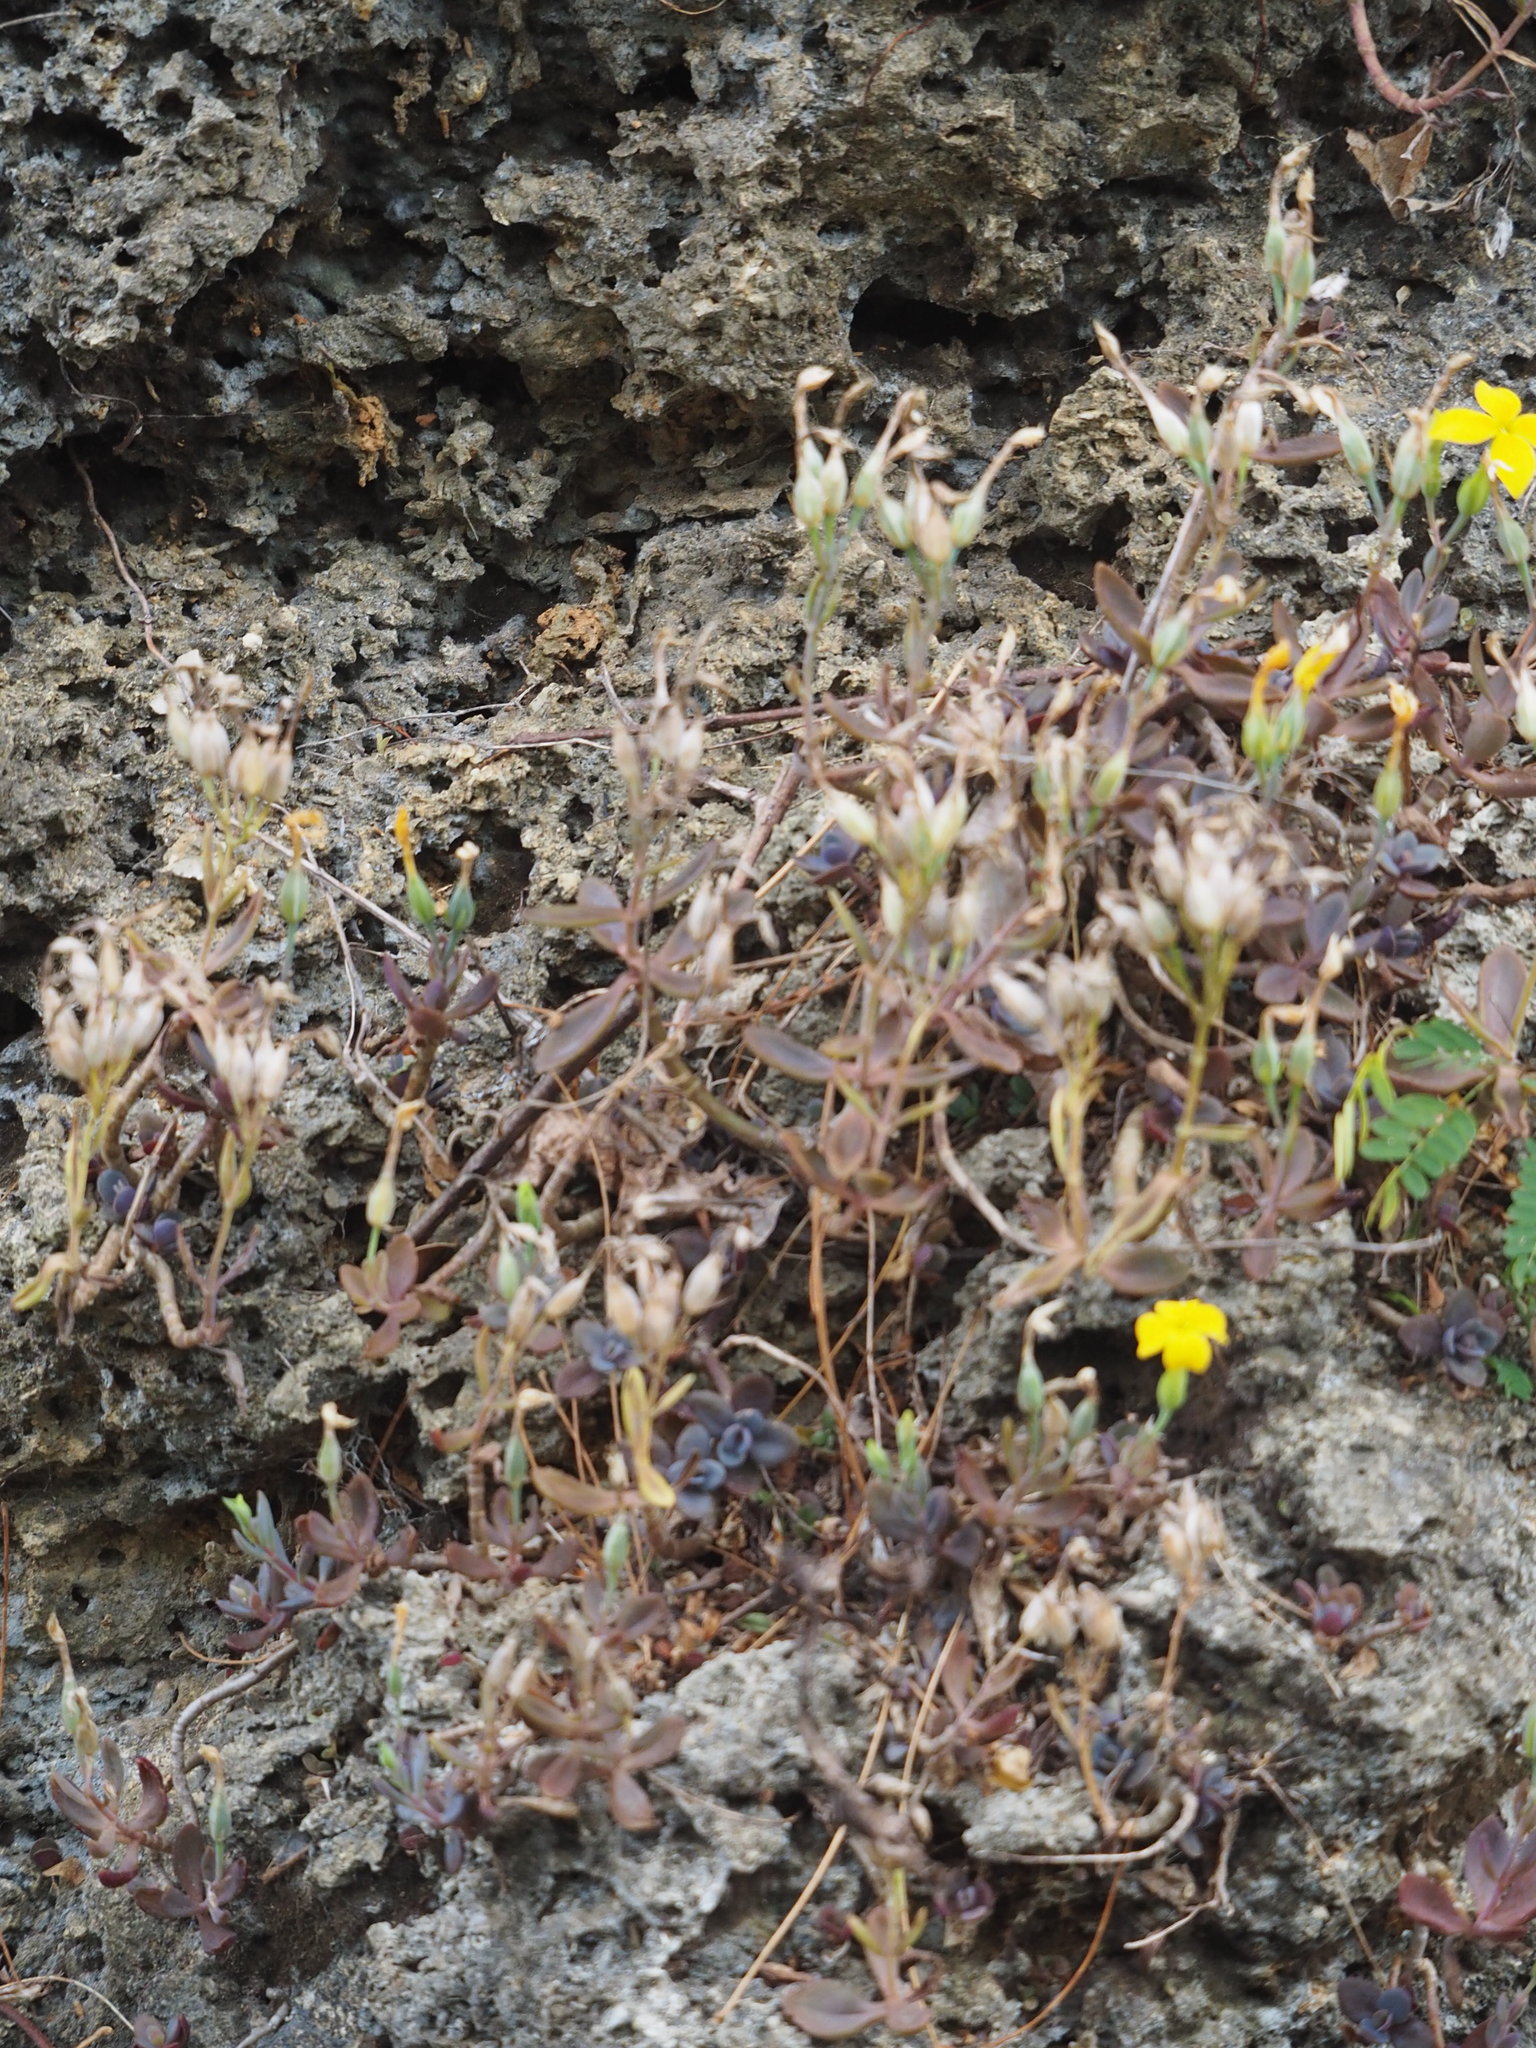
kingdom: Plantae
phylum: Tracheophyta
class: Magnoliopsida
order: Saxifragales
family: Crassulaceae
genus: Kalanchoe
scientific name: Kalanchoe integra
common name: Neverdie
